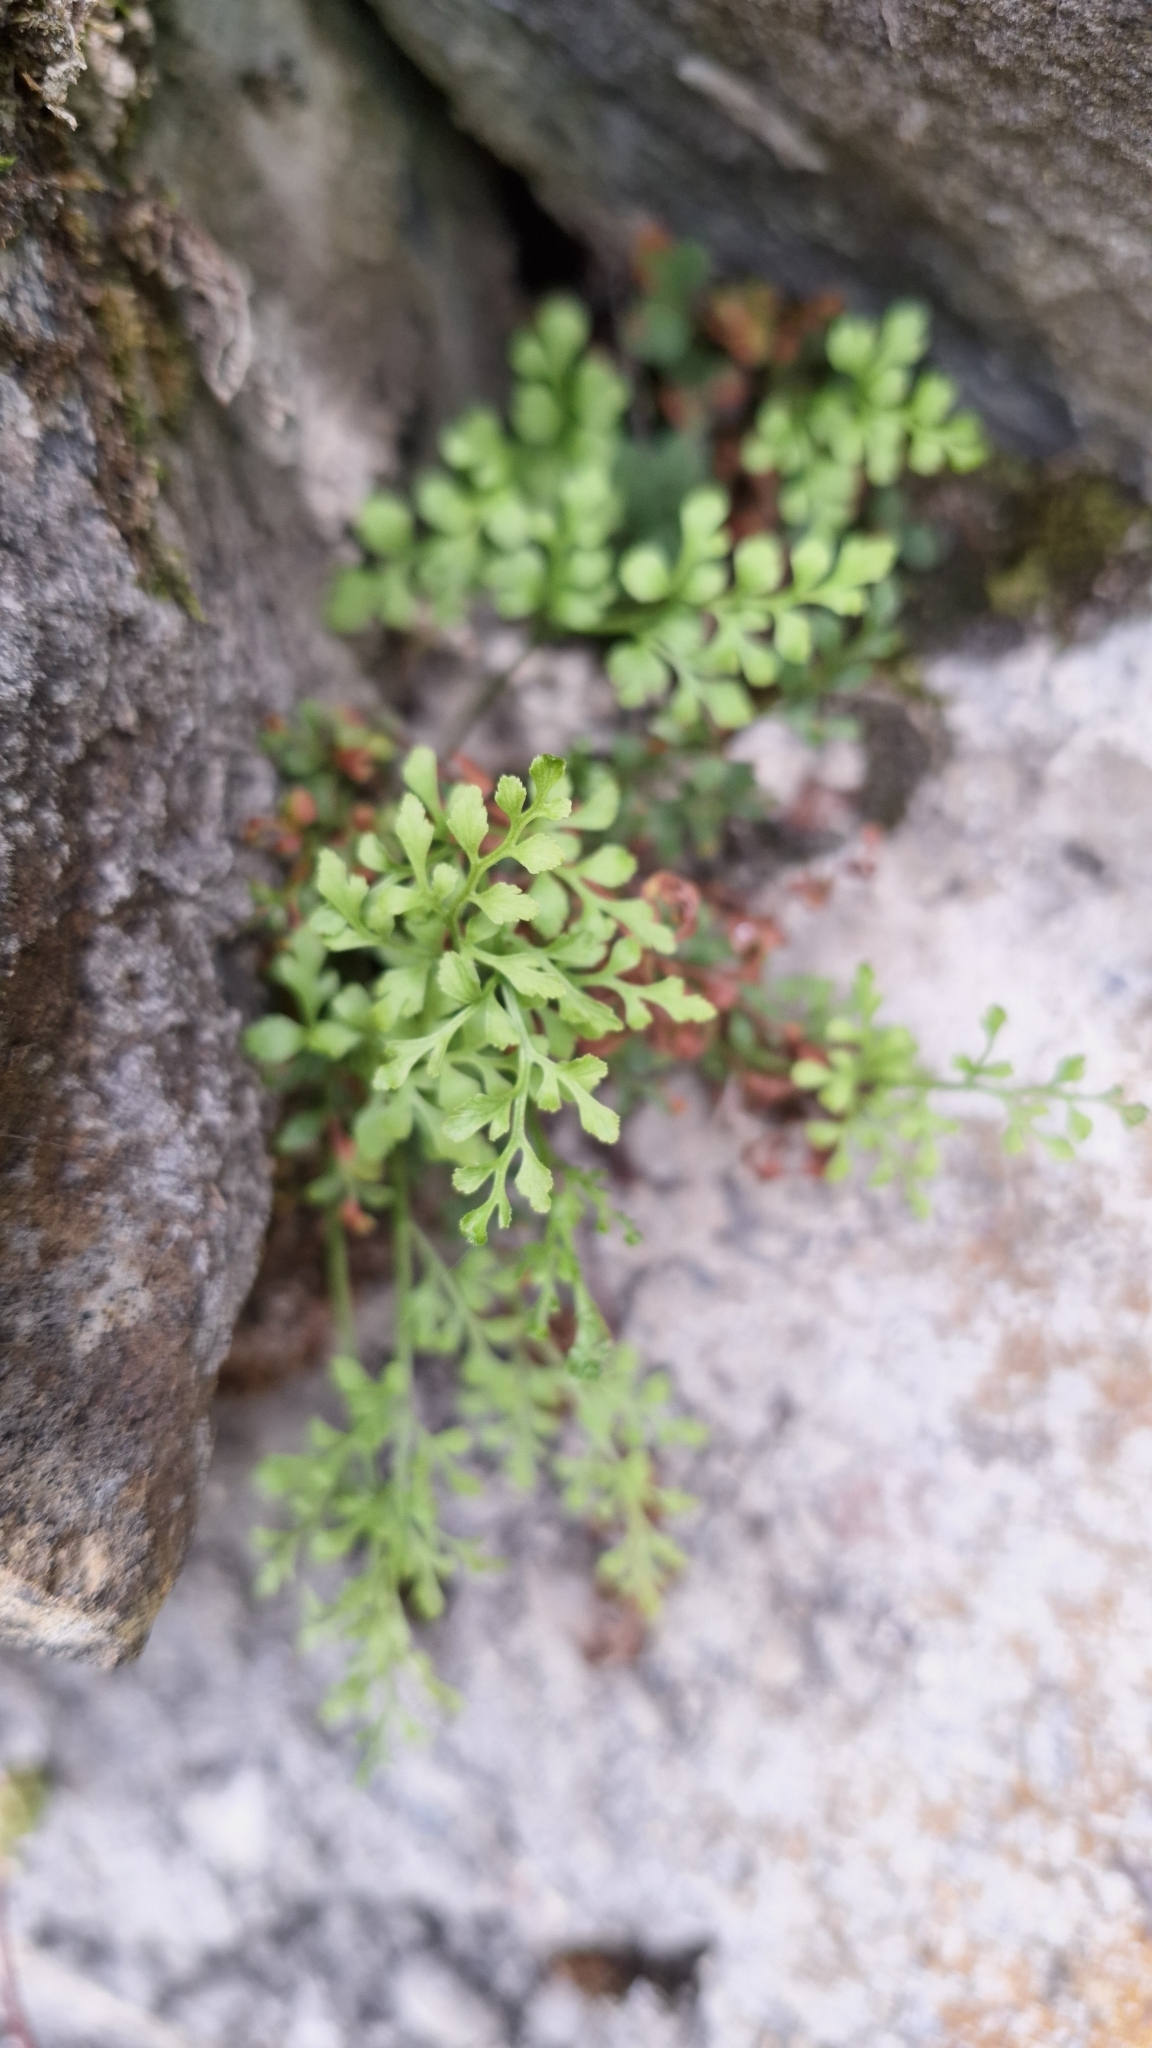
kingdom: Plantae
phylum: Tracheophyta
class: Polypodiopsida
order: Polypodiales
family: Aspleniaceae
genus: Asplenium
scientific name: Asplenium ruta-muraria
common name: Wall-rue
